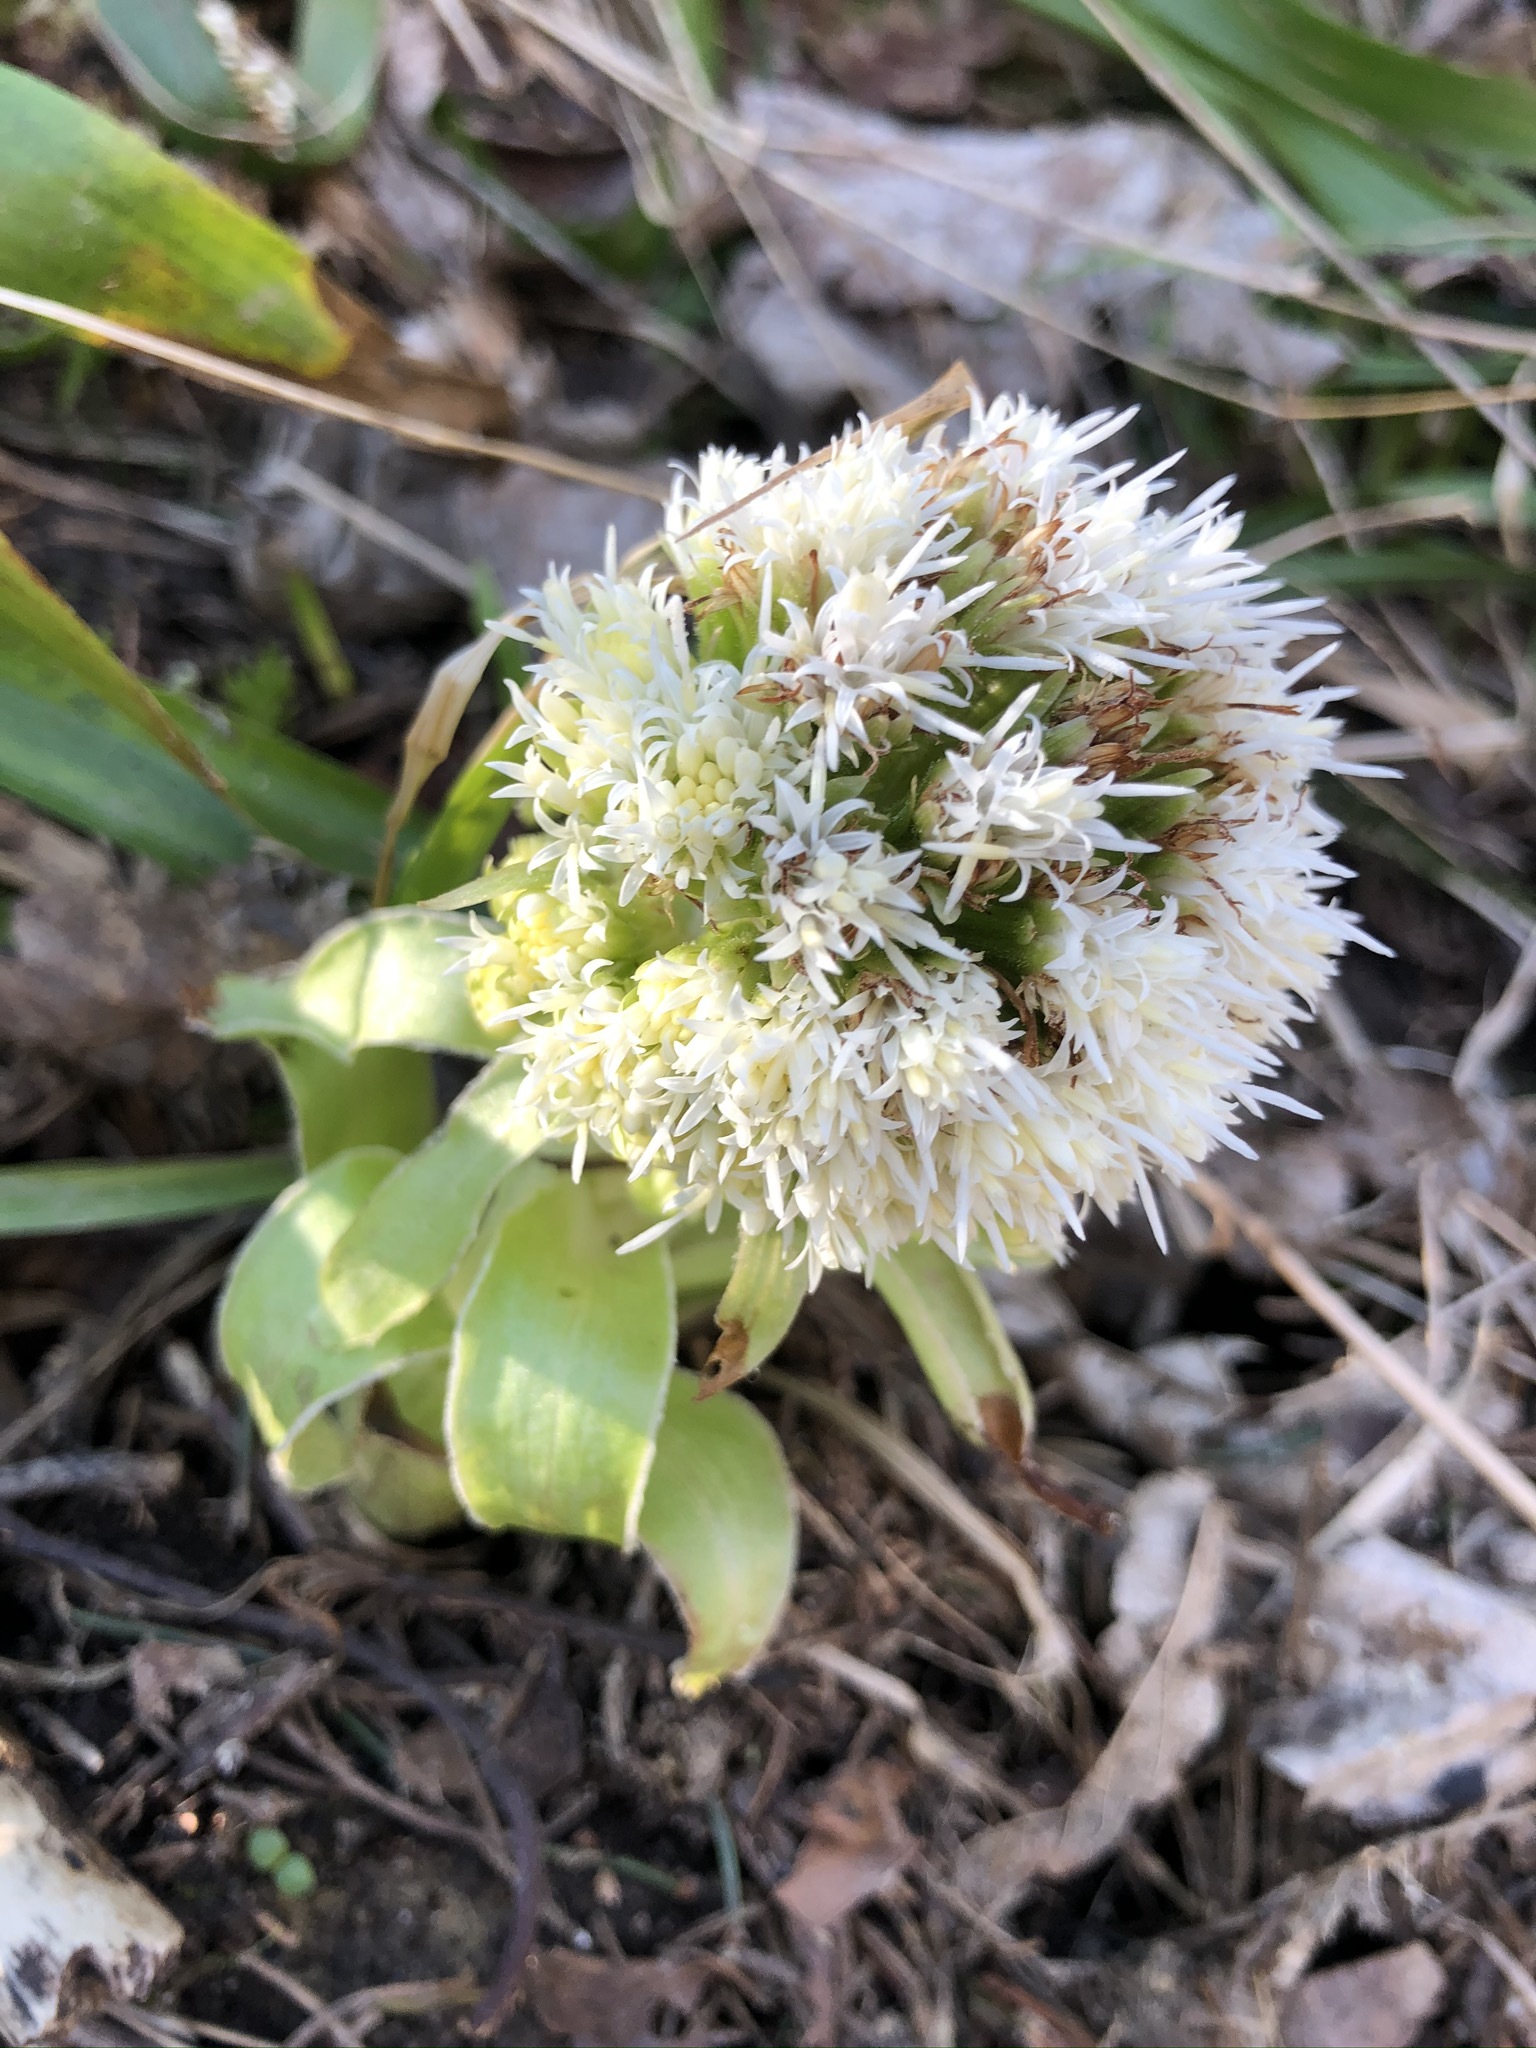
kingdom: Plantae
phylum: Tracheophyta
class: Magnoliopsida
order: Asterales
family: Asteraceae
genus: Petasites
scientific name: Petasites albus
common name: White butterbur
